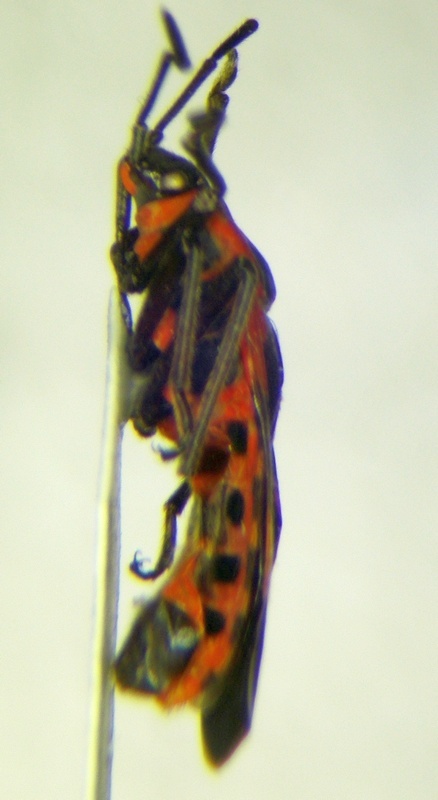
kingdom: Animalia
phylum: Arthropoda
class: Insecta
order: Hemiptera
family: Lygaeidae
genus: Tropidothorax
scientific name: Tropidothorax leucopterus
